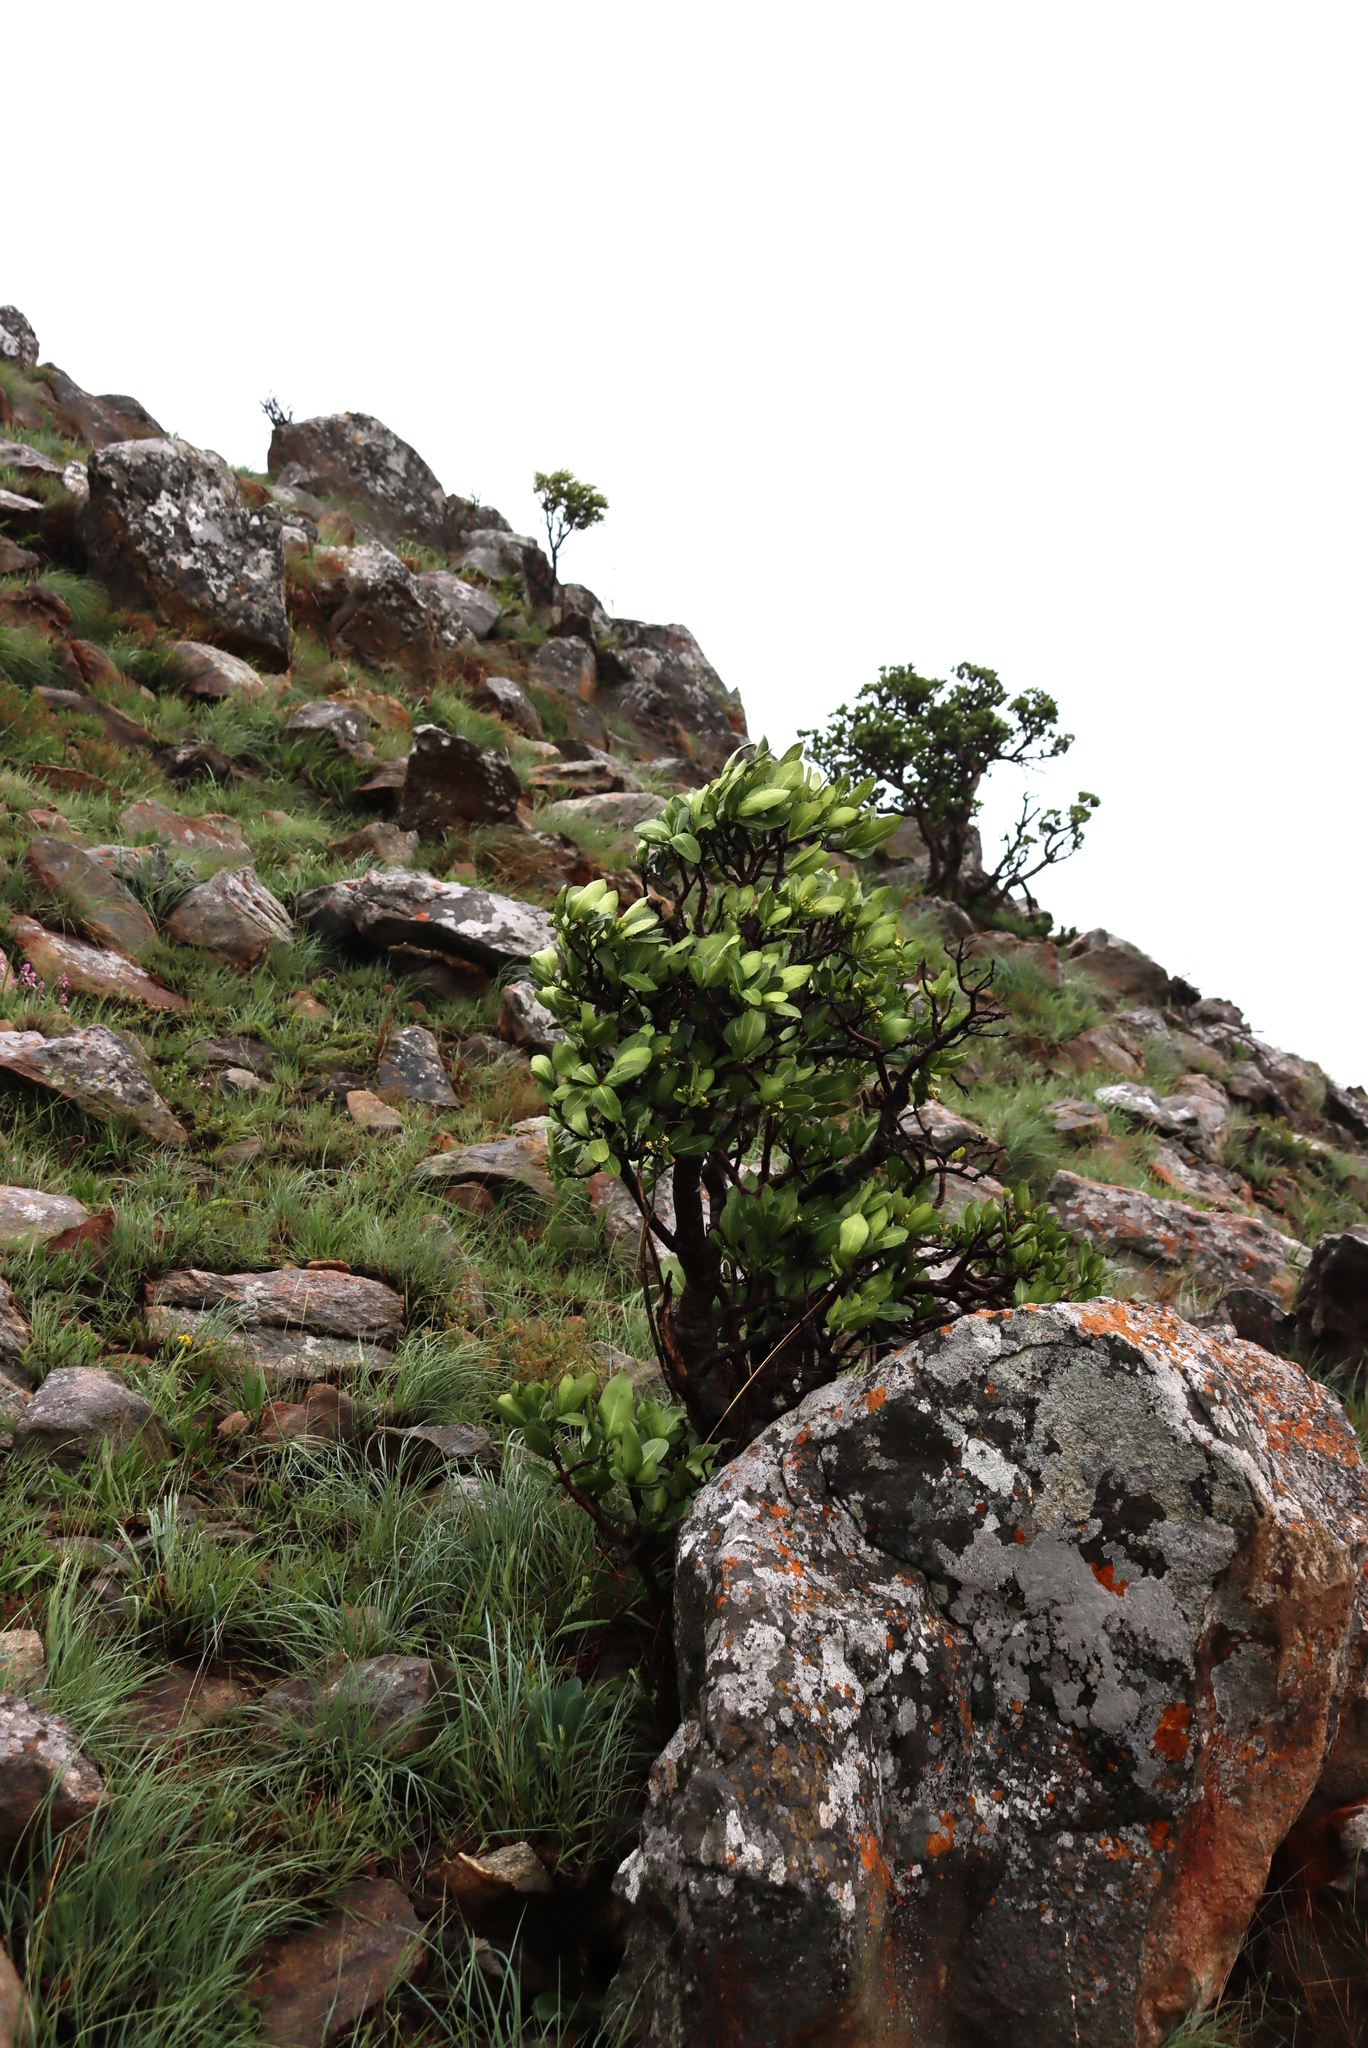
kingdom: Plantae
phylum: Tracheophyta
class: Magnoliopsida
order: Gentianales
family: Rubiaceae
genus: Psychotria
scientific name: Psychotria
